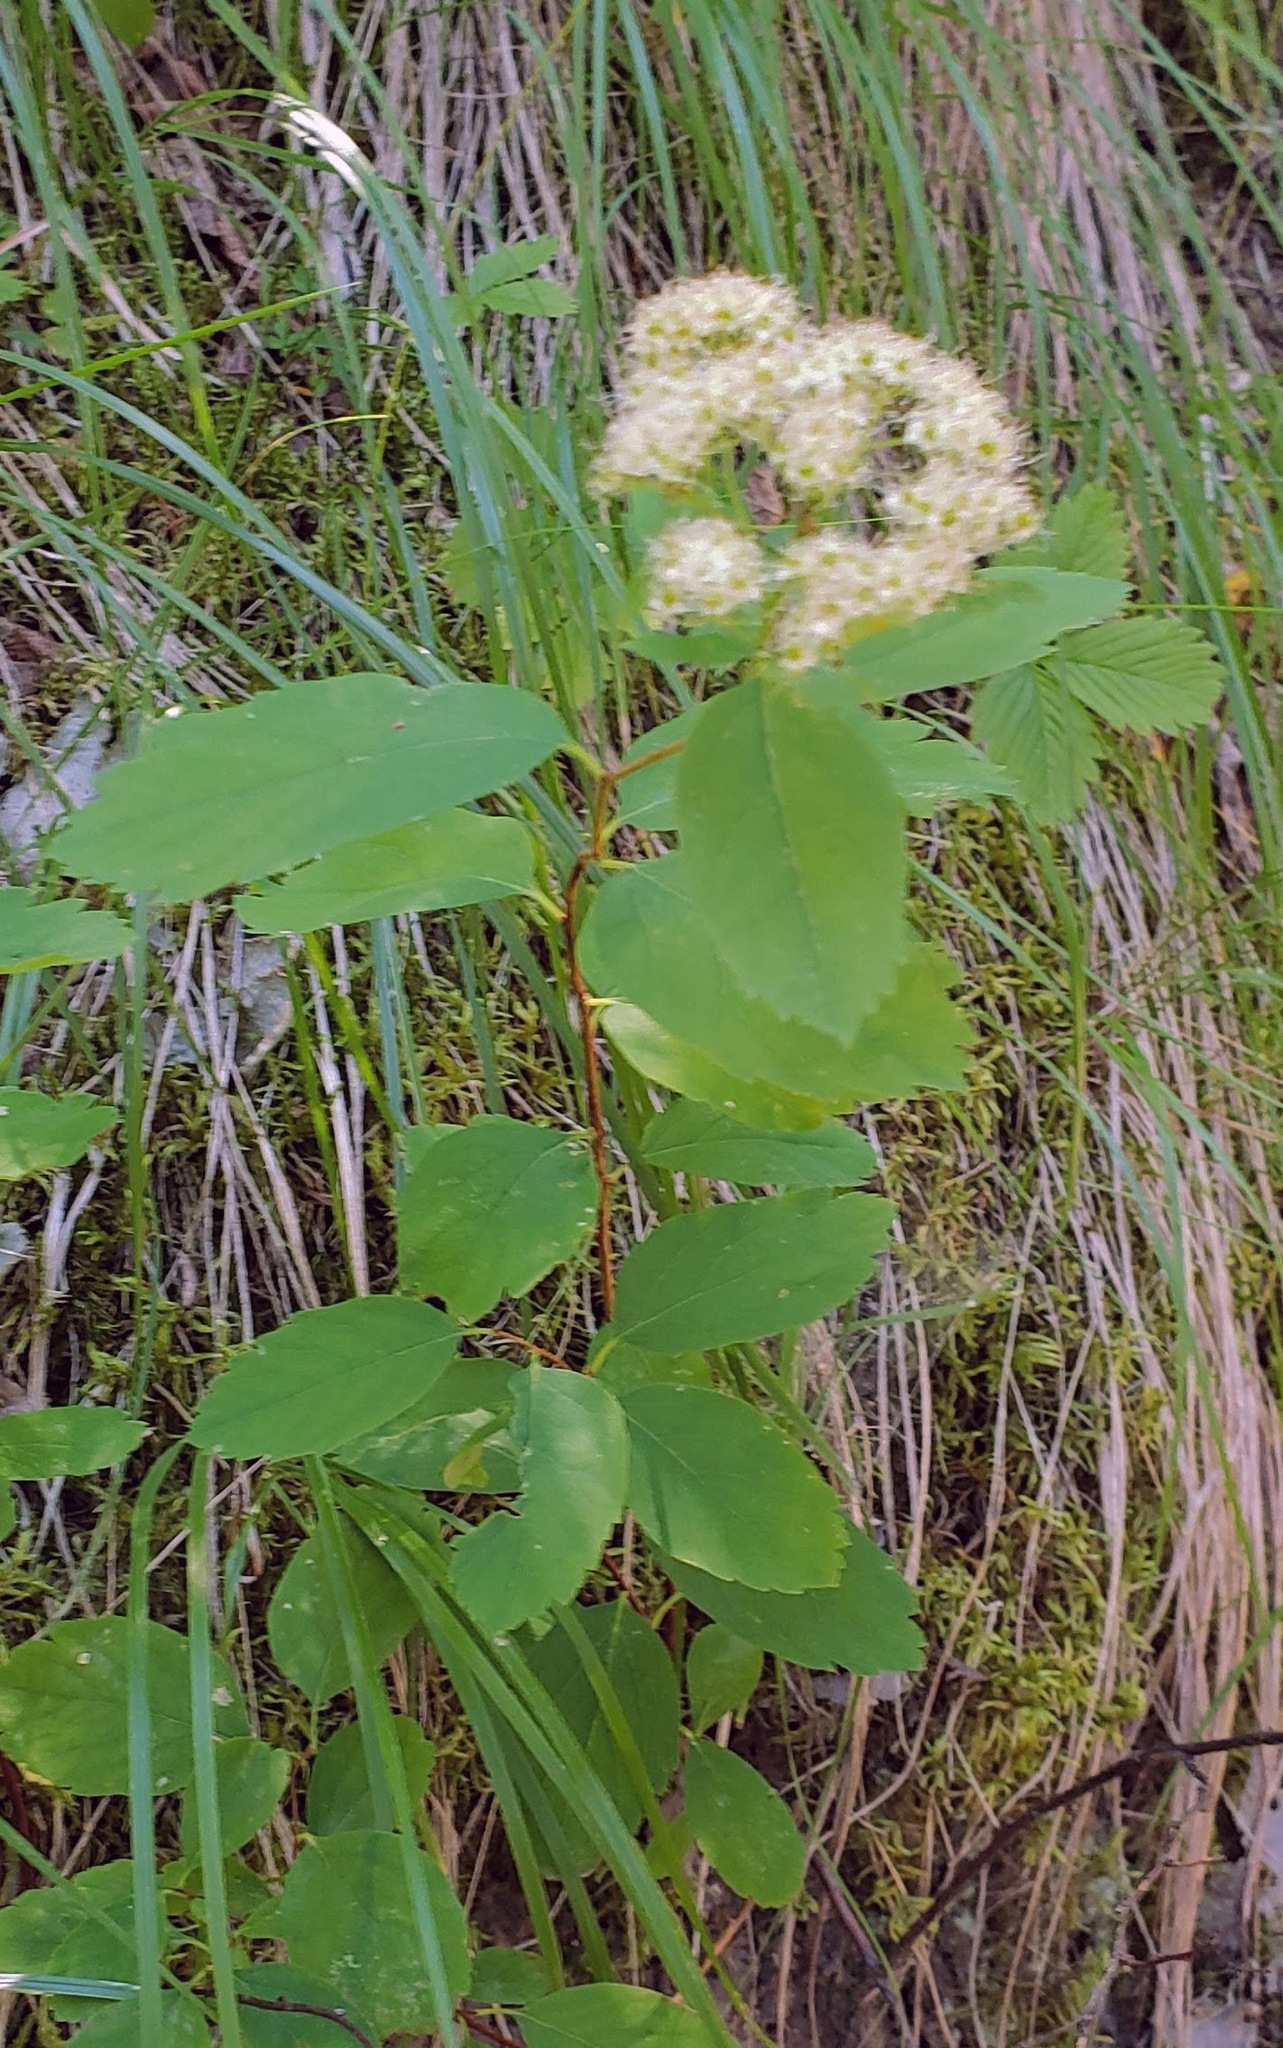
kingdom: Plantae
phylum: Tracheophyta
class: Magnoliopsida
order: Rosales
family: Rosaceae
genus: Spiraea
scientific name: Spiraea lucida
